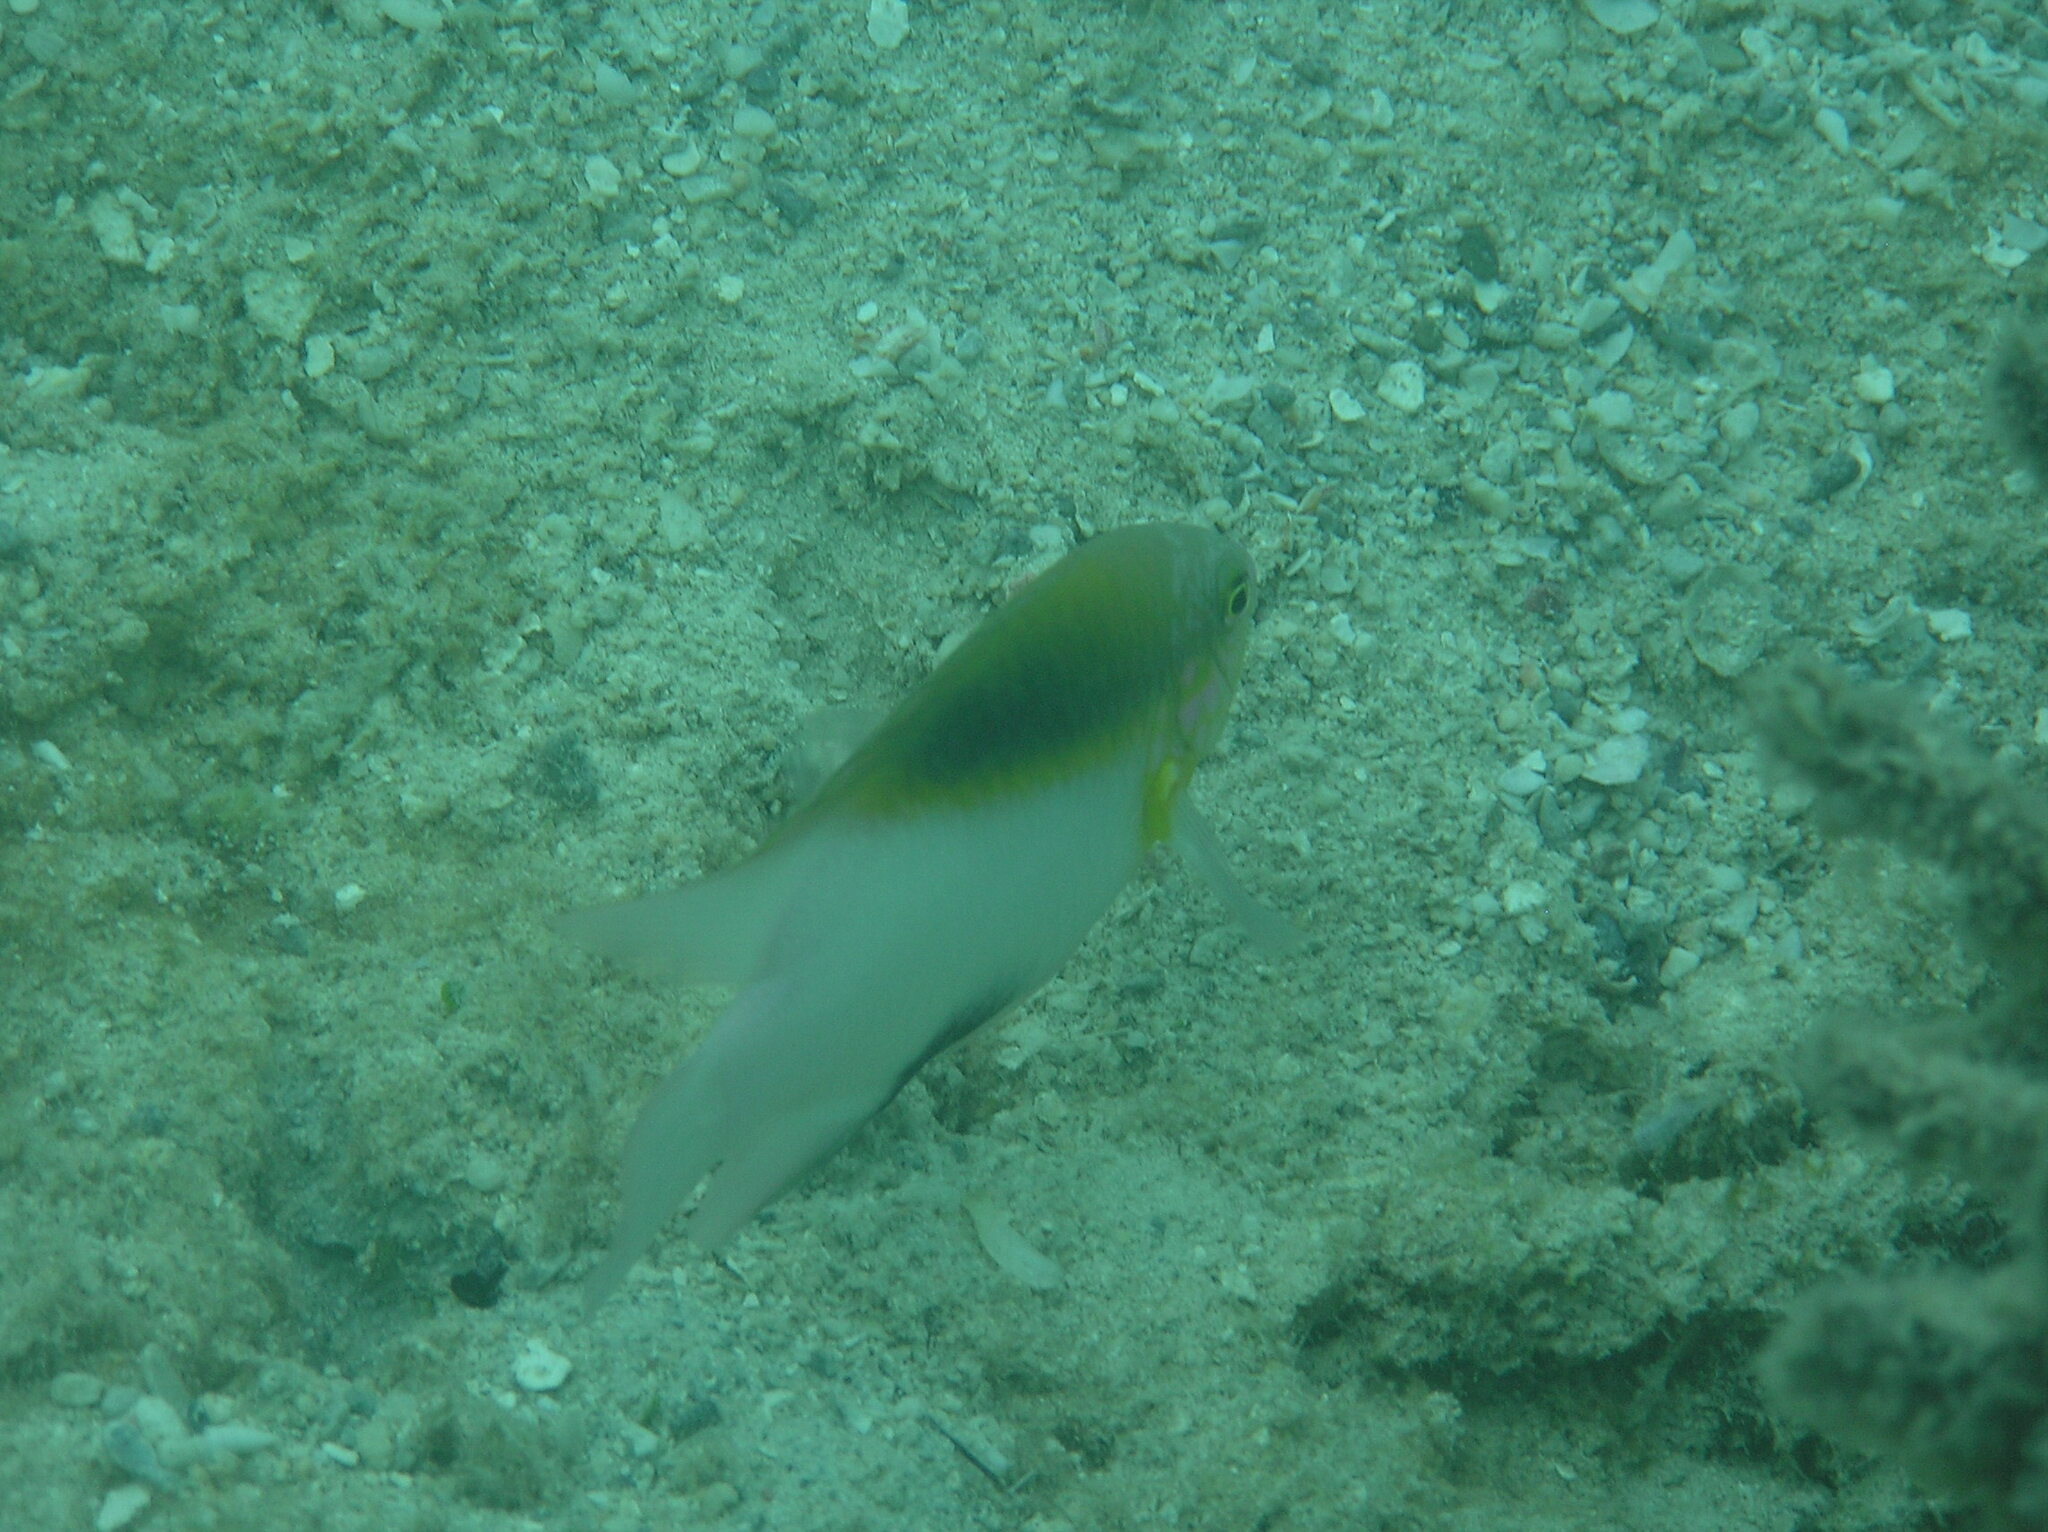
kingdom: Animalia
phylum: Chordata
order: Perciformes
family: Pomacentridae
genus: Dischistodus
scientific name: Dischistodus melanotus
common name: Black-vent damsel
